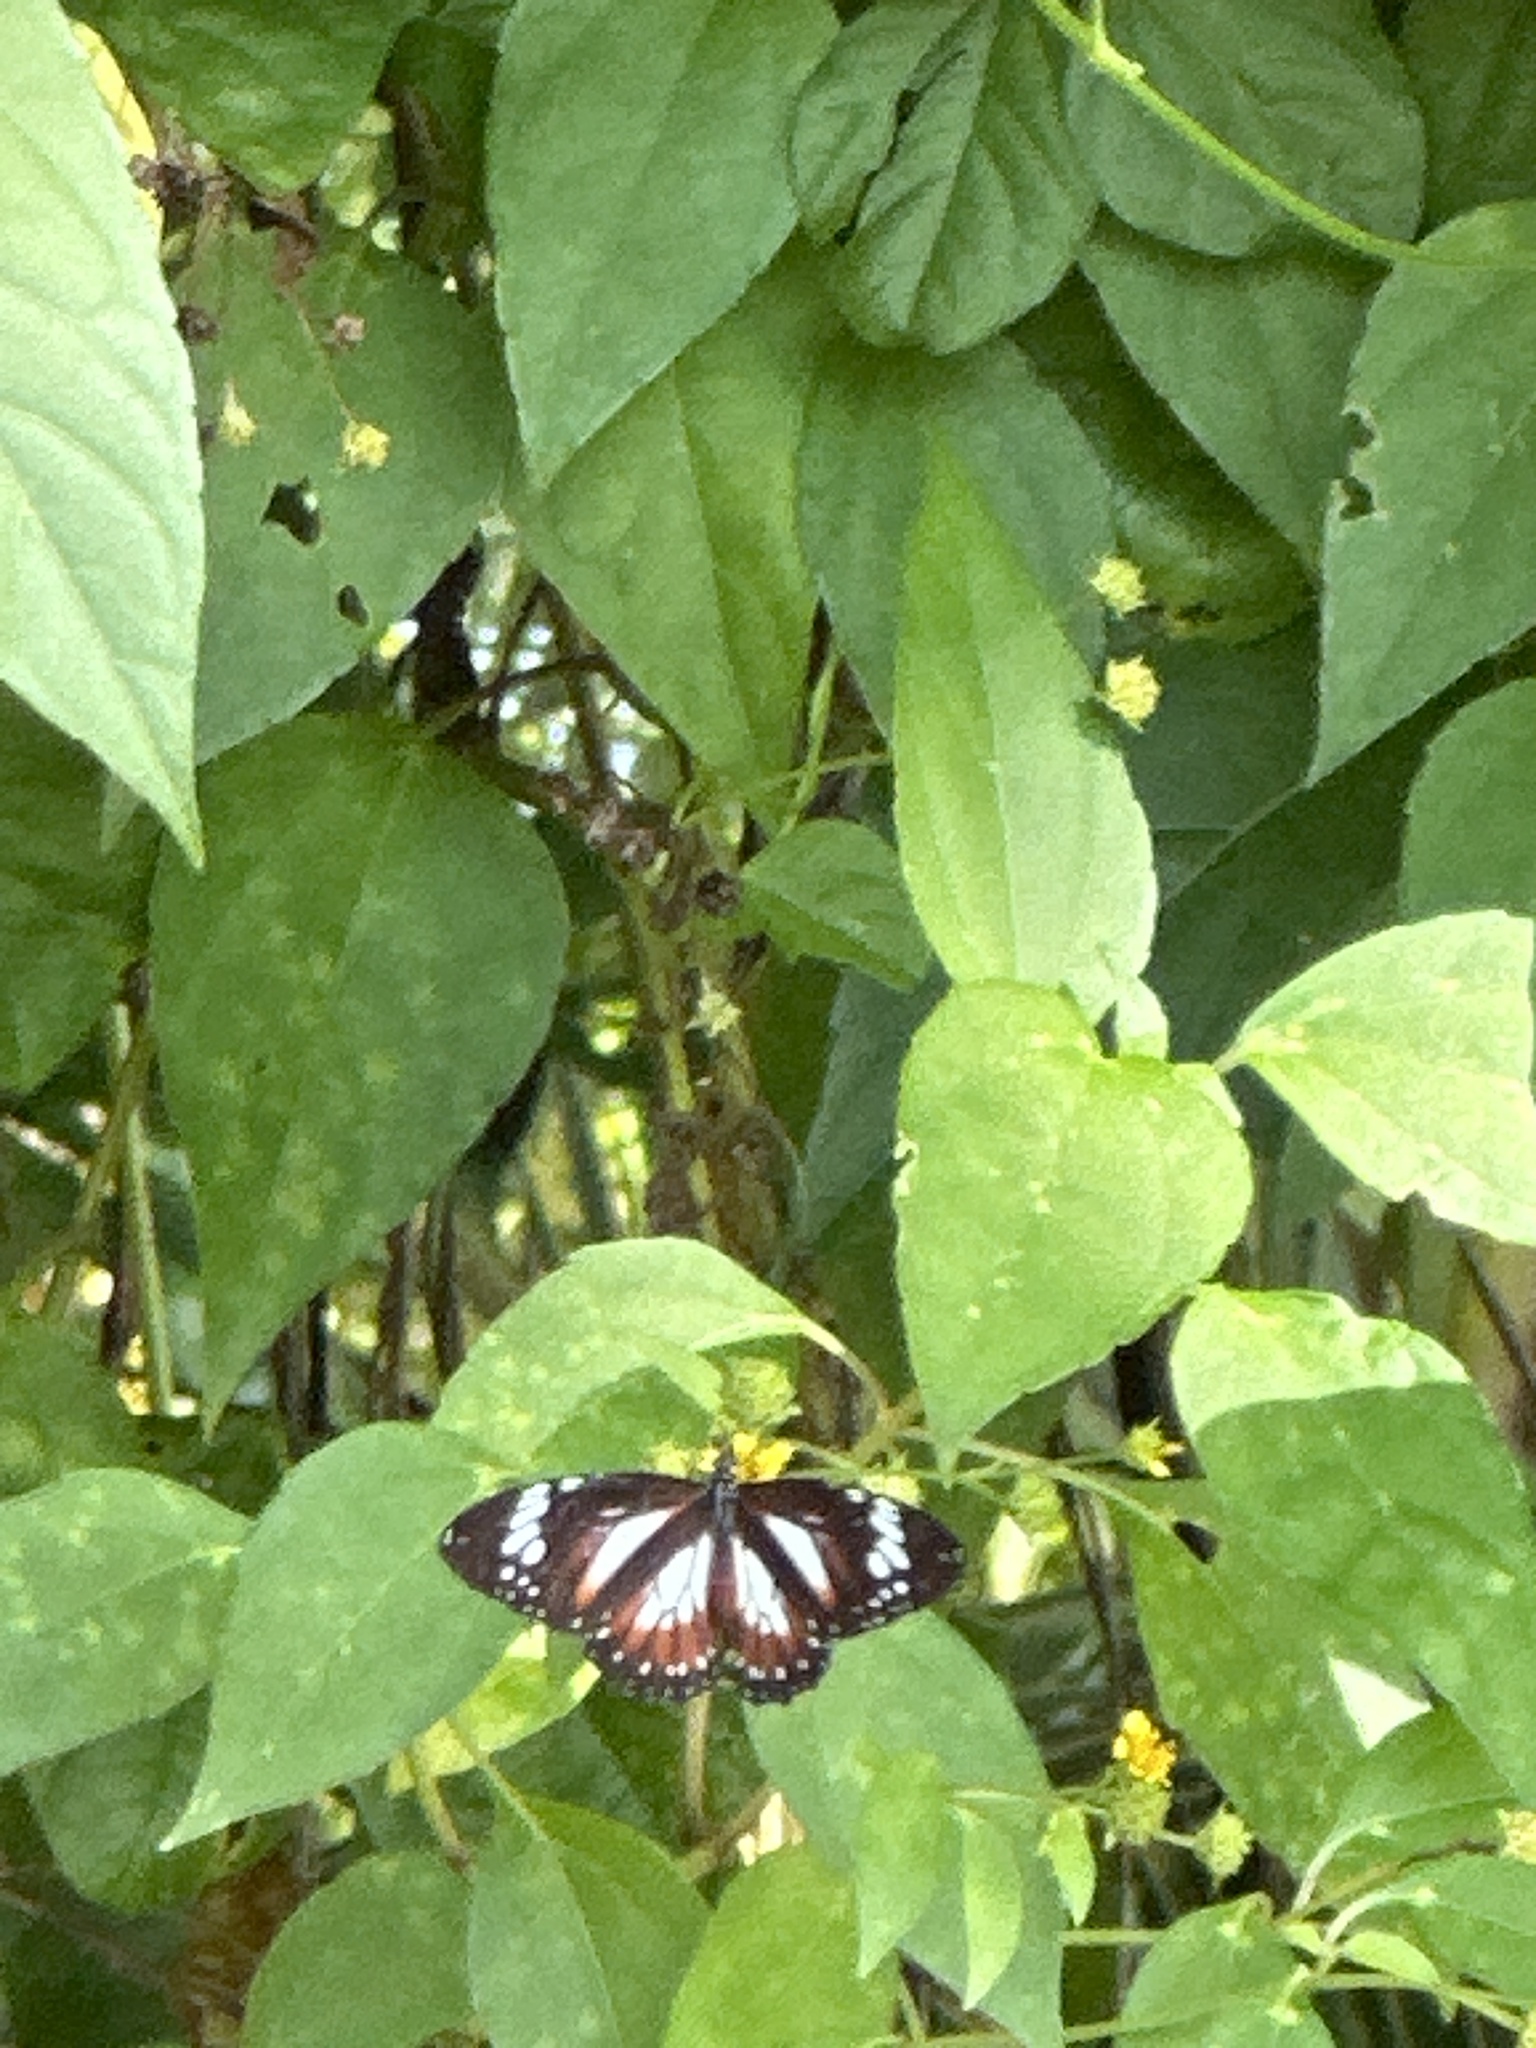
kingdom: Animalia
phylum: Arthropoda
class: Insecta
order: Lepidoptera
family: Nymphalidae
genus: Danaus
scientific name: Danaus affinis
